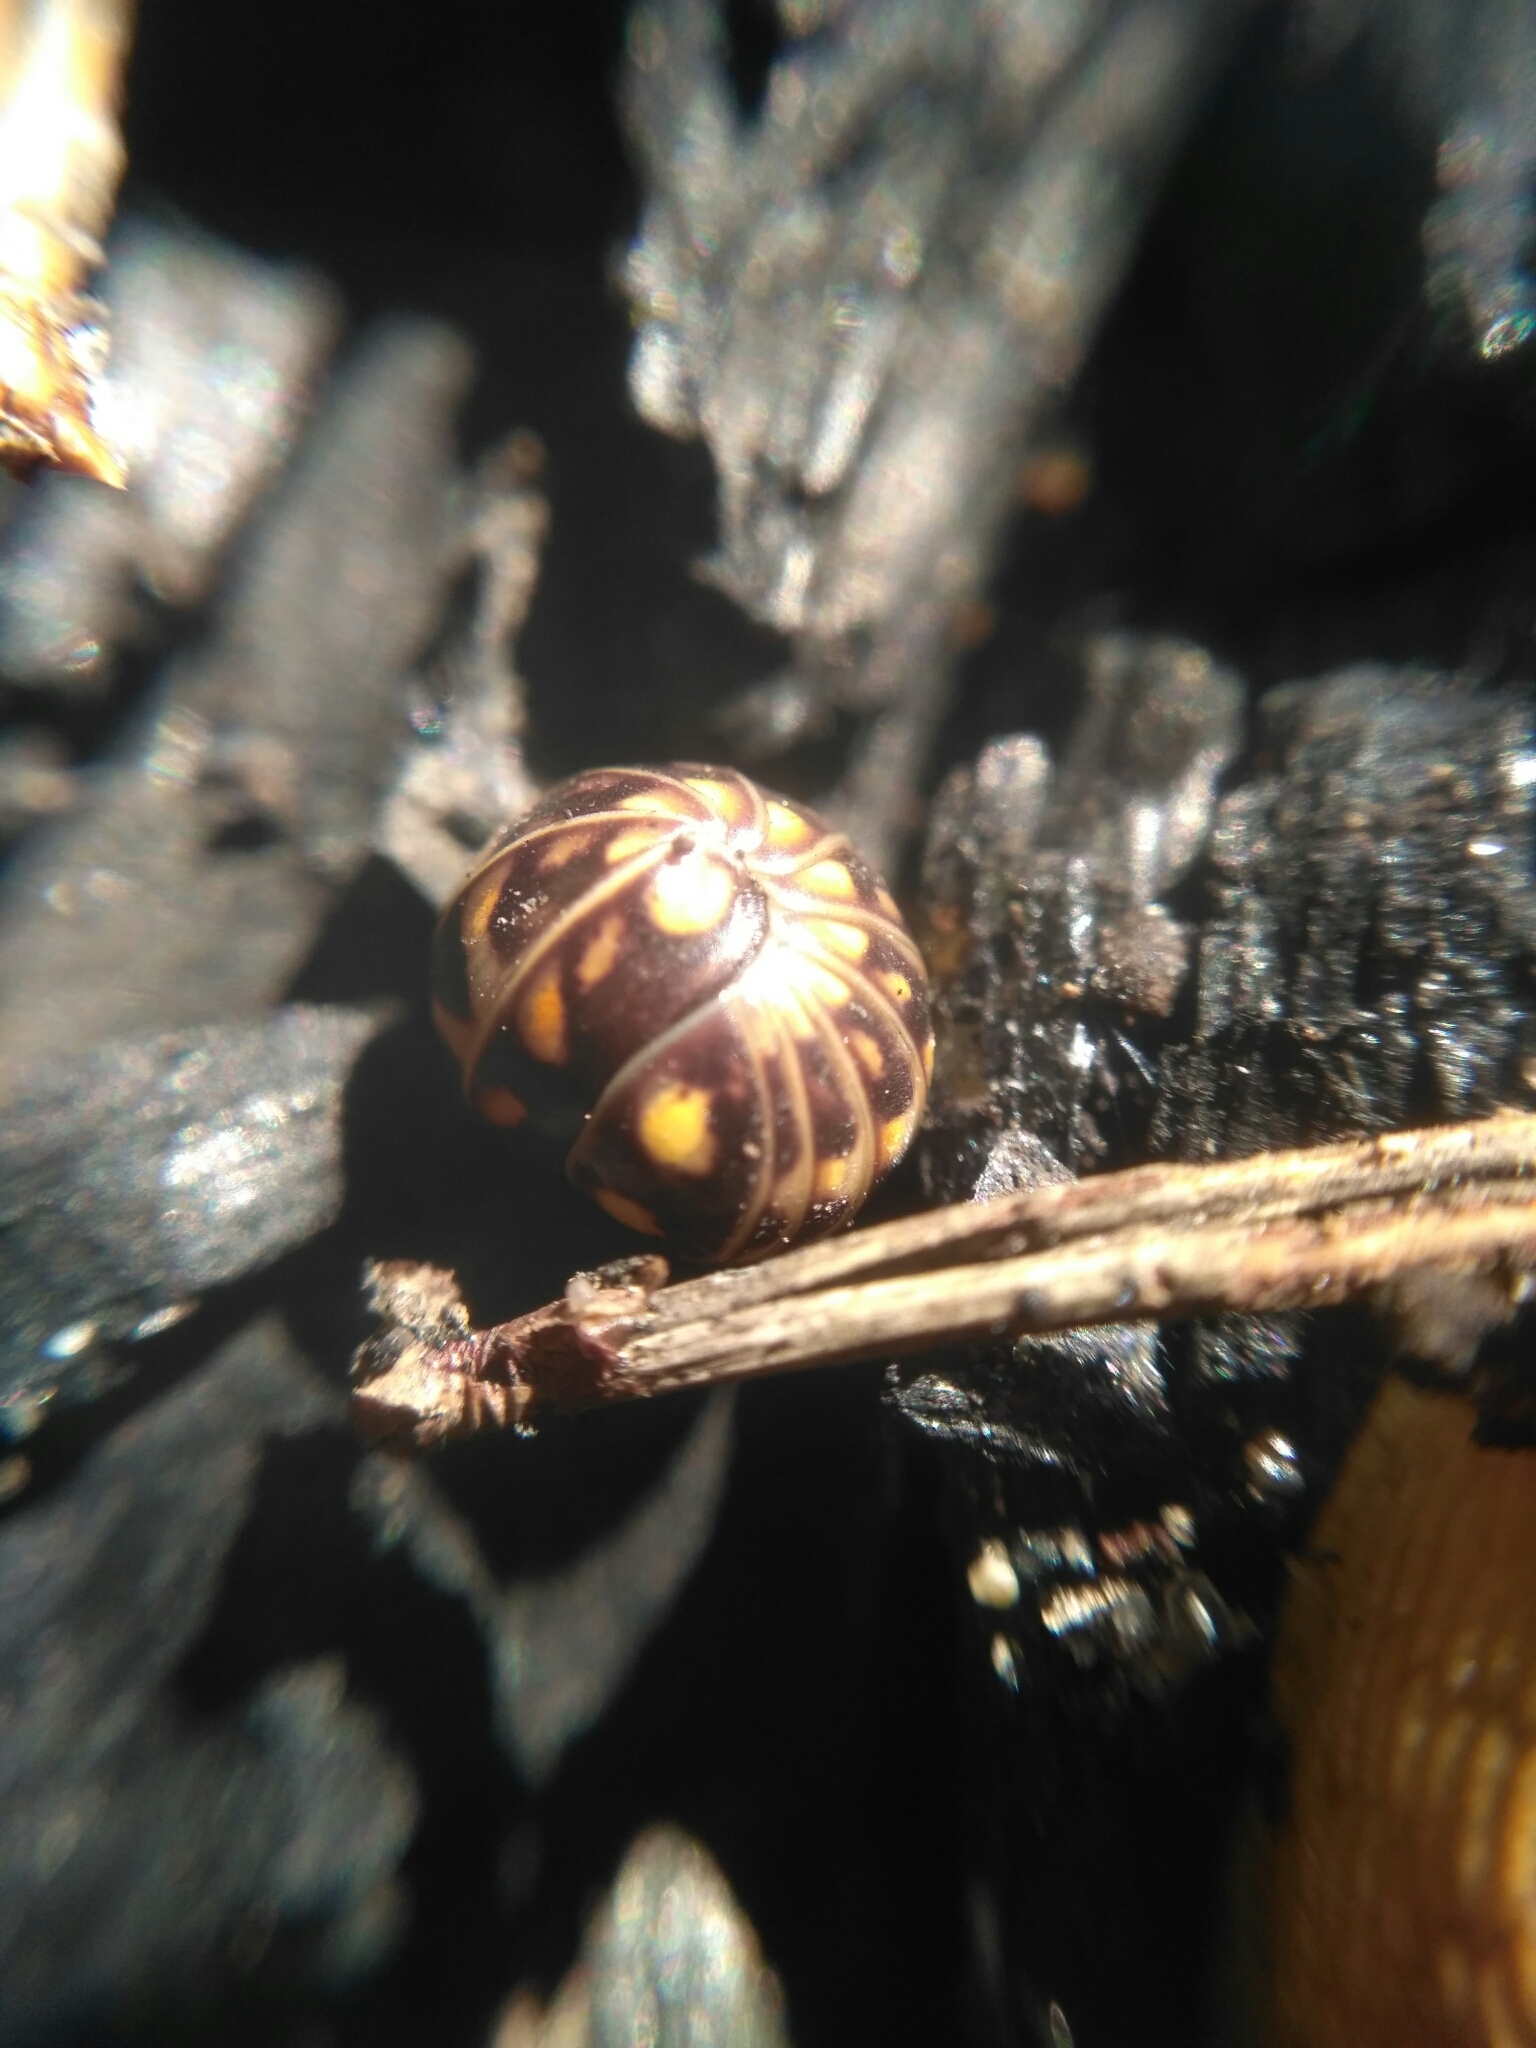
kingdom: Animalia
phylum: Arthropoda
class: Diplopoda
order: Glomerida
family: Glomeridae
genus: Glomeris
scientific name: Glomeris hexasticha
